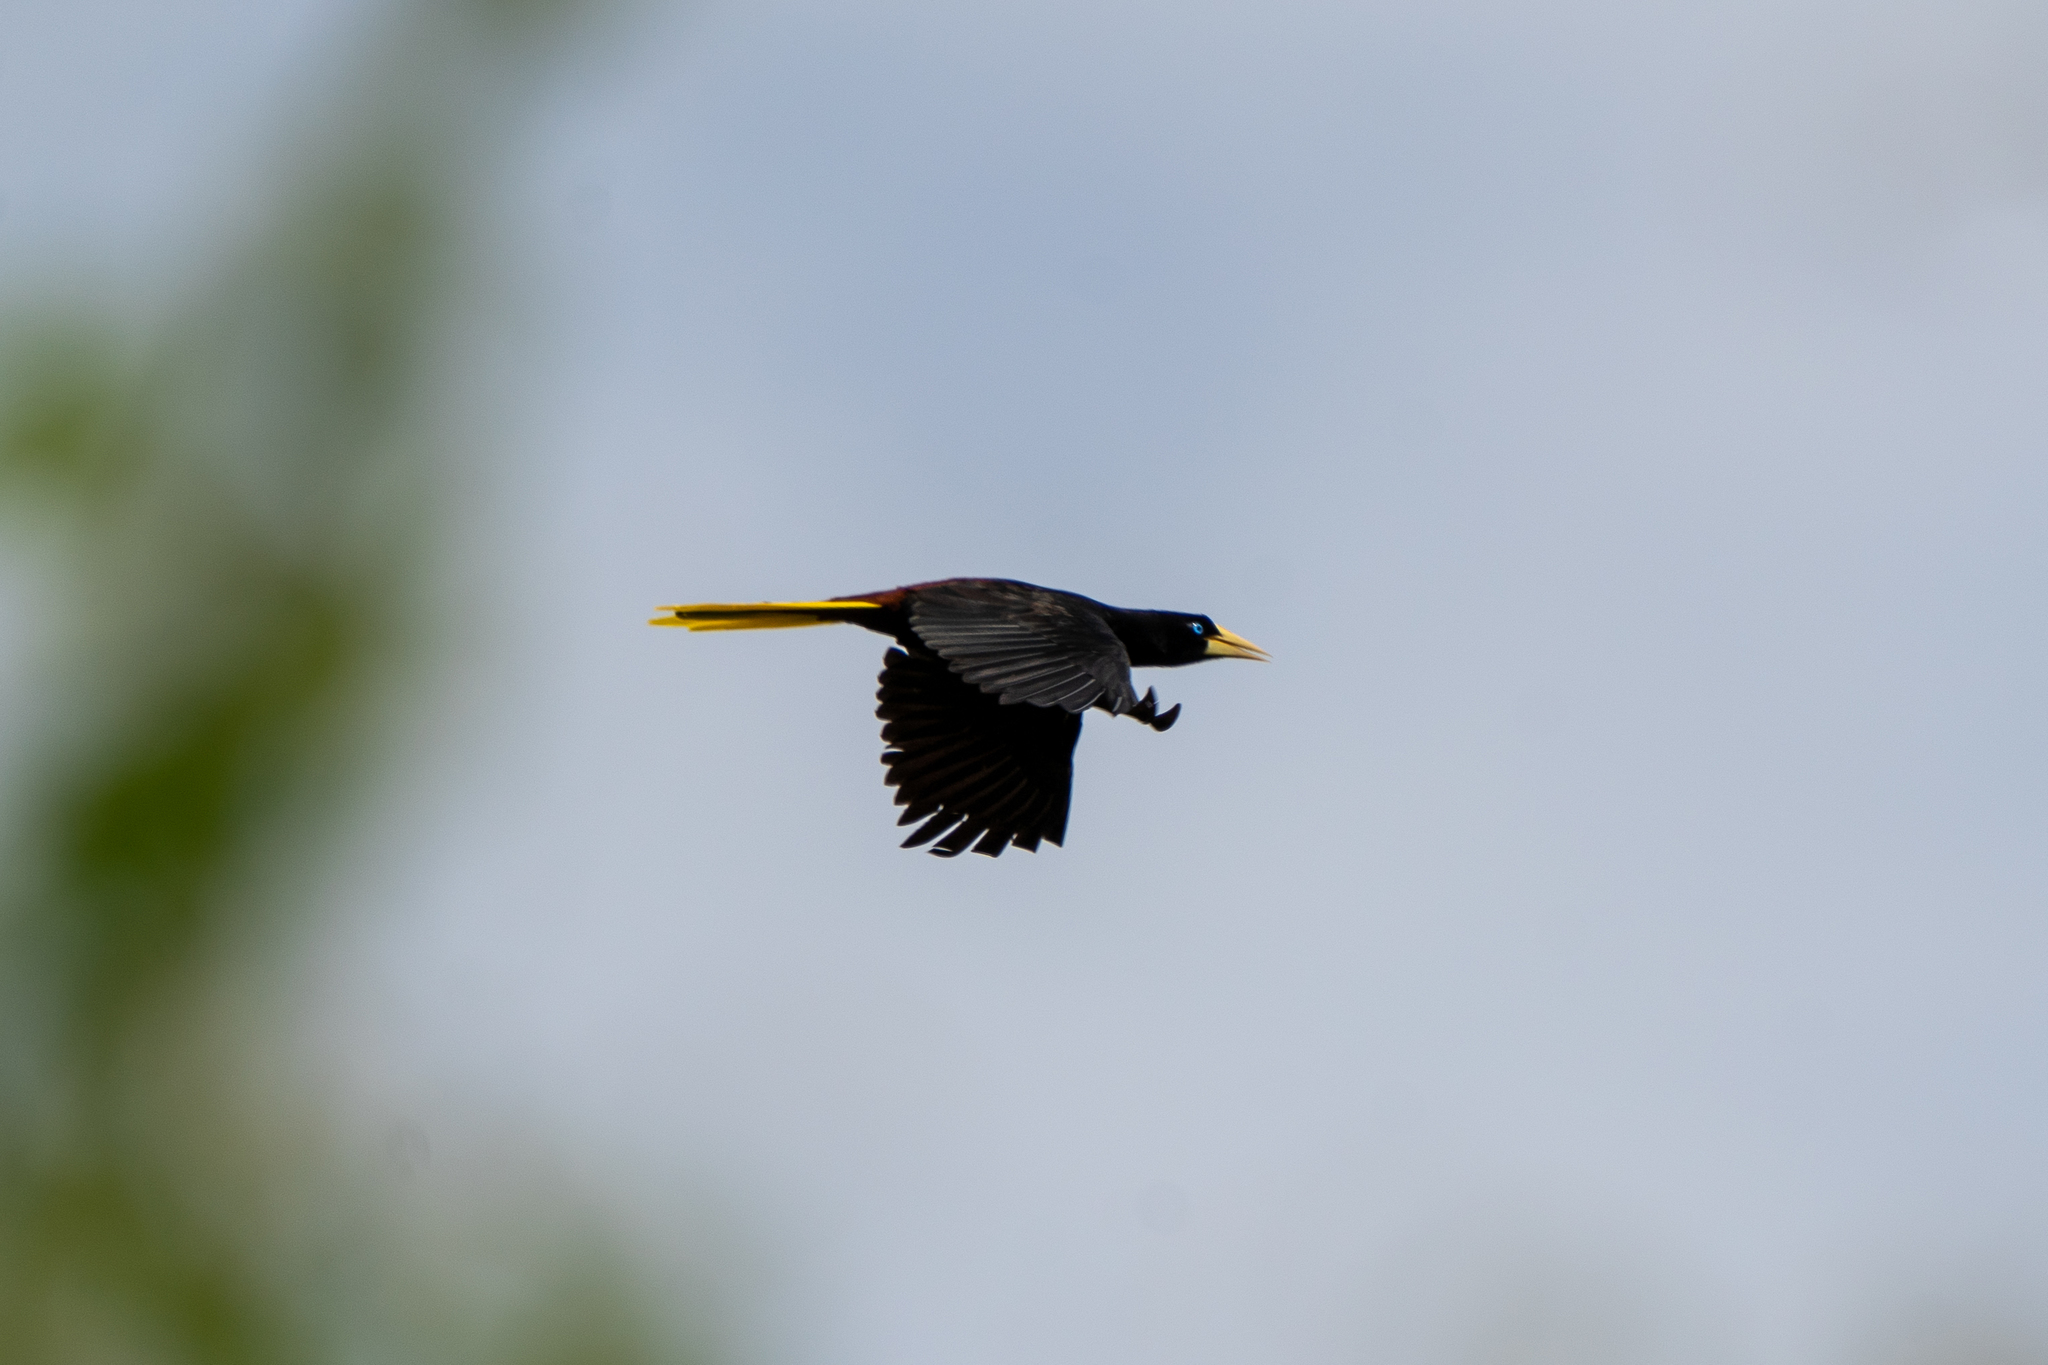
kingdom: Animalia
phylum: Chordata
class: Aves
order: Passeriformes
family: Icteridae
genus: Psarocolius
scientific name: Psarocolius decumanus
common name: Crested oropendola
